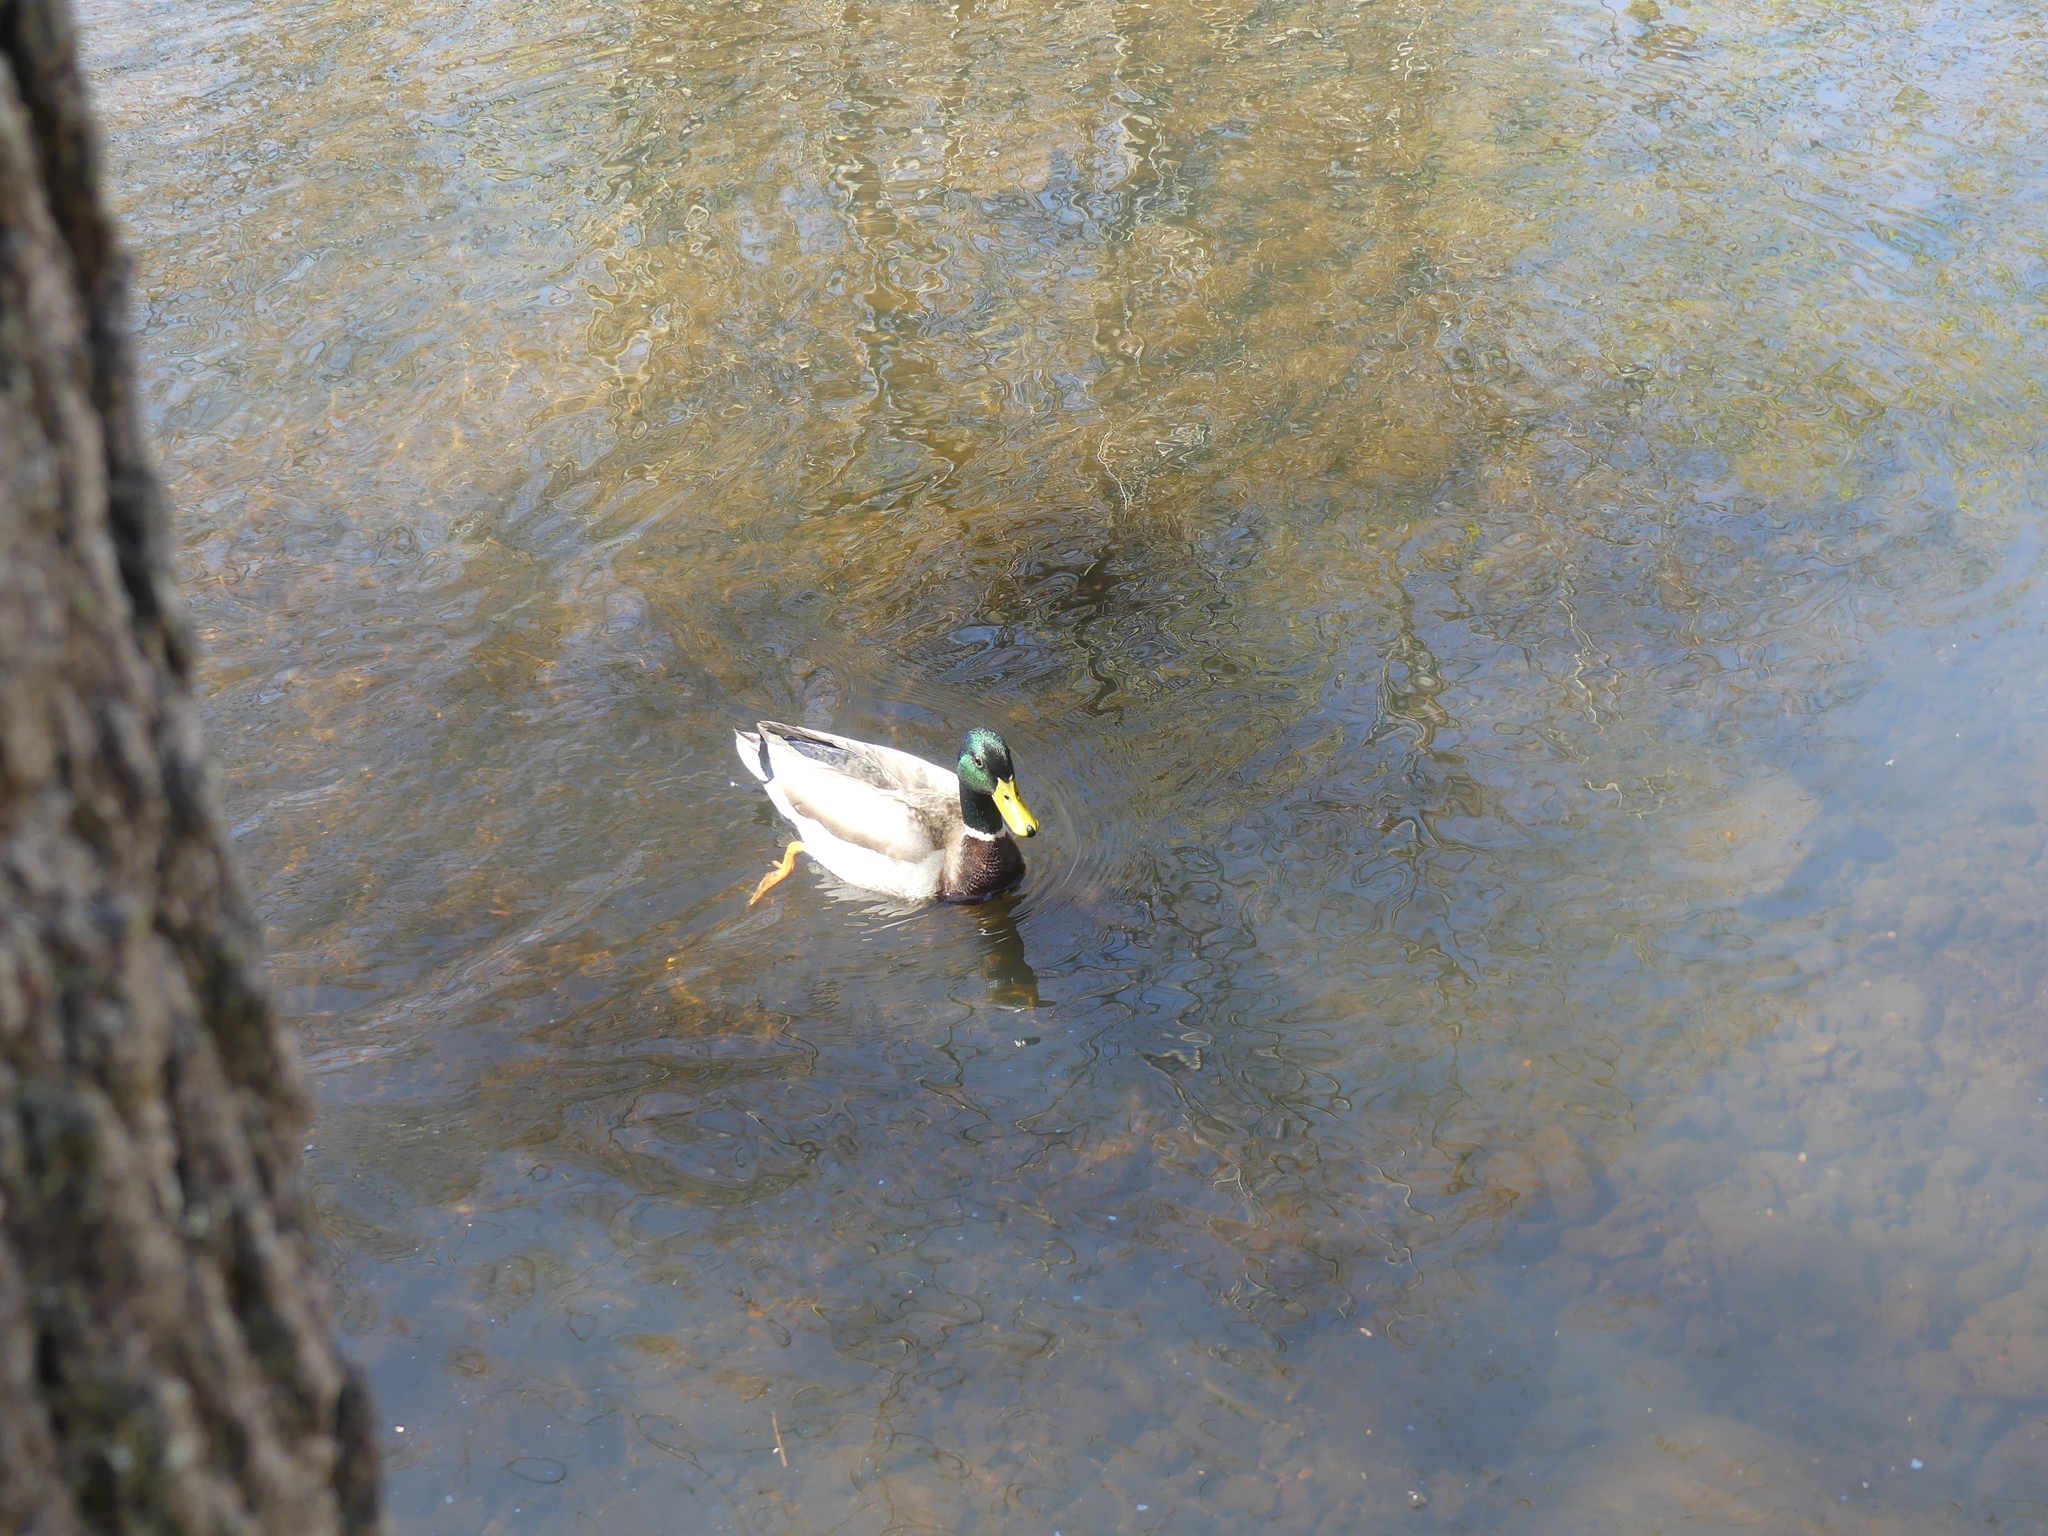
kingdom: Animalia
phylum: Chordata
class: Aves
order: Anseriformes
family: Anatidae
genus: Anas
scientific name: Anas platyrhynchos
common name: Mallard
